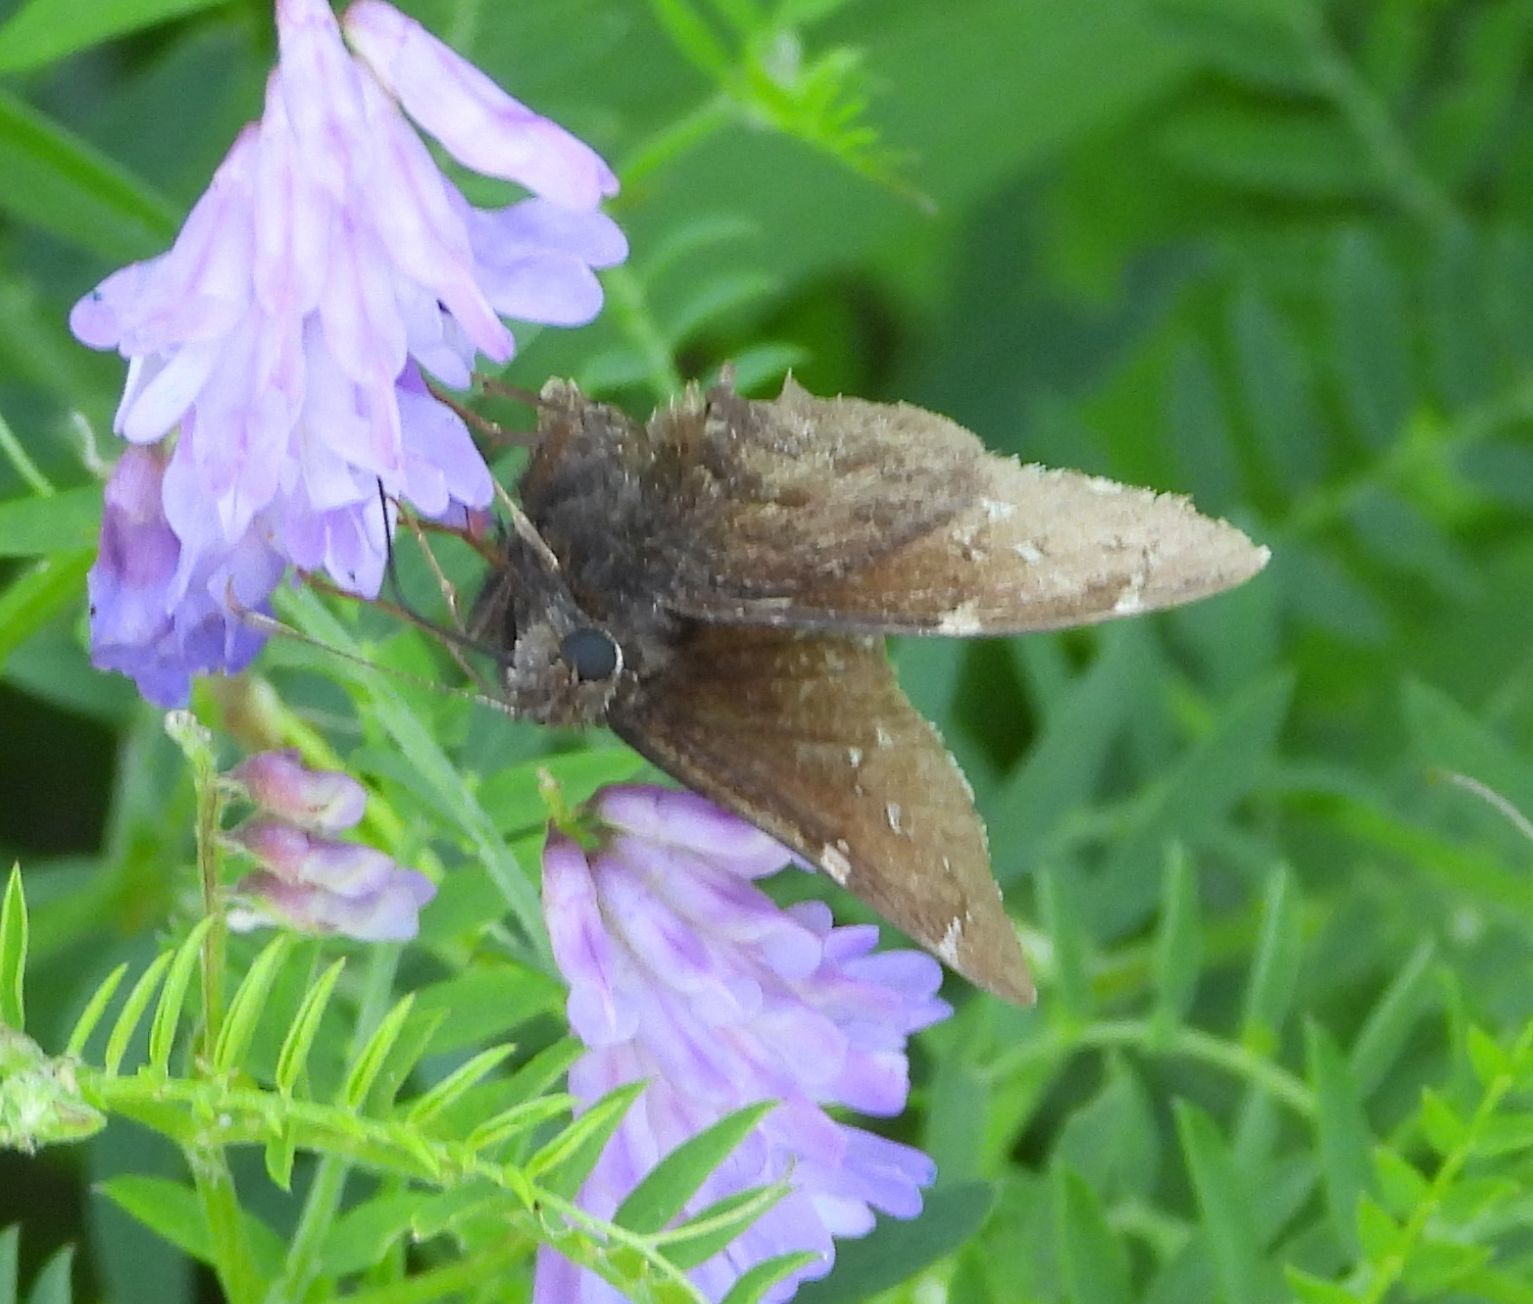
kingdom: Animalia
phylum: Arthropoda
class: Insecta
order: Lepidoptera
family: Hesperiidae
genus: Thorybes
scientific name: Thorybes pylades
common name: Northern cloudywing
